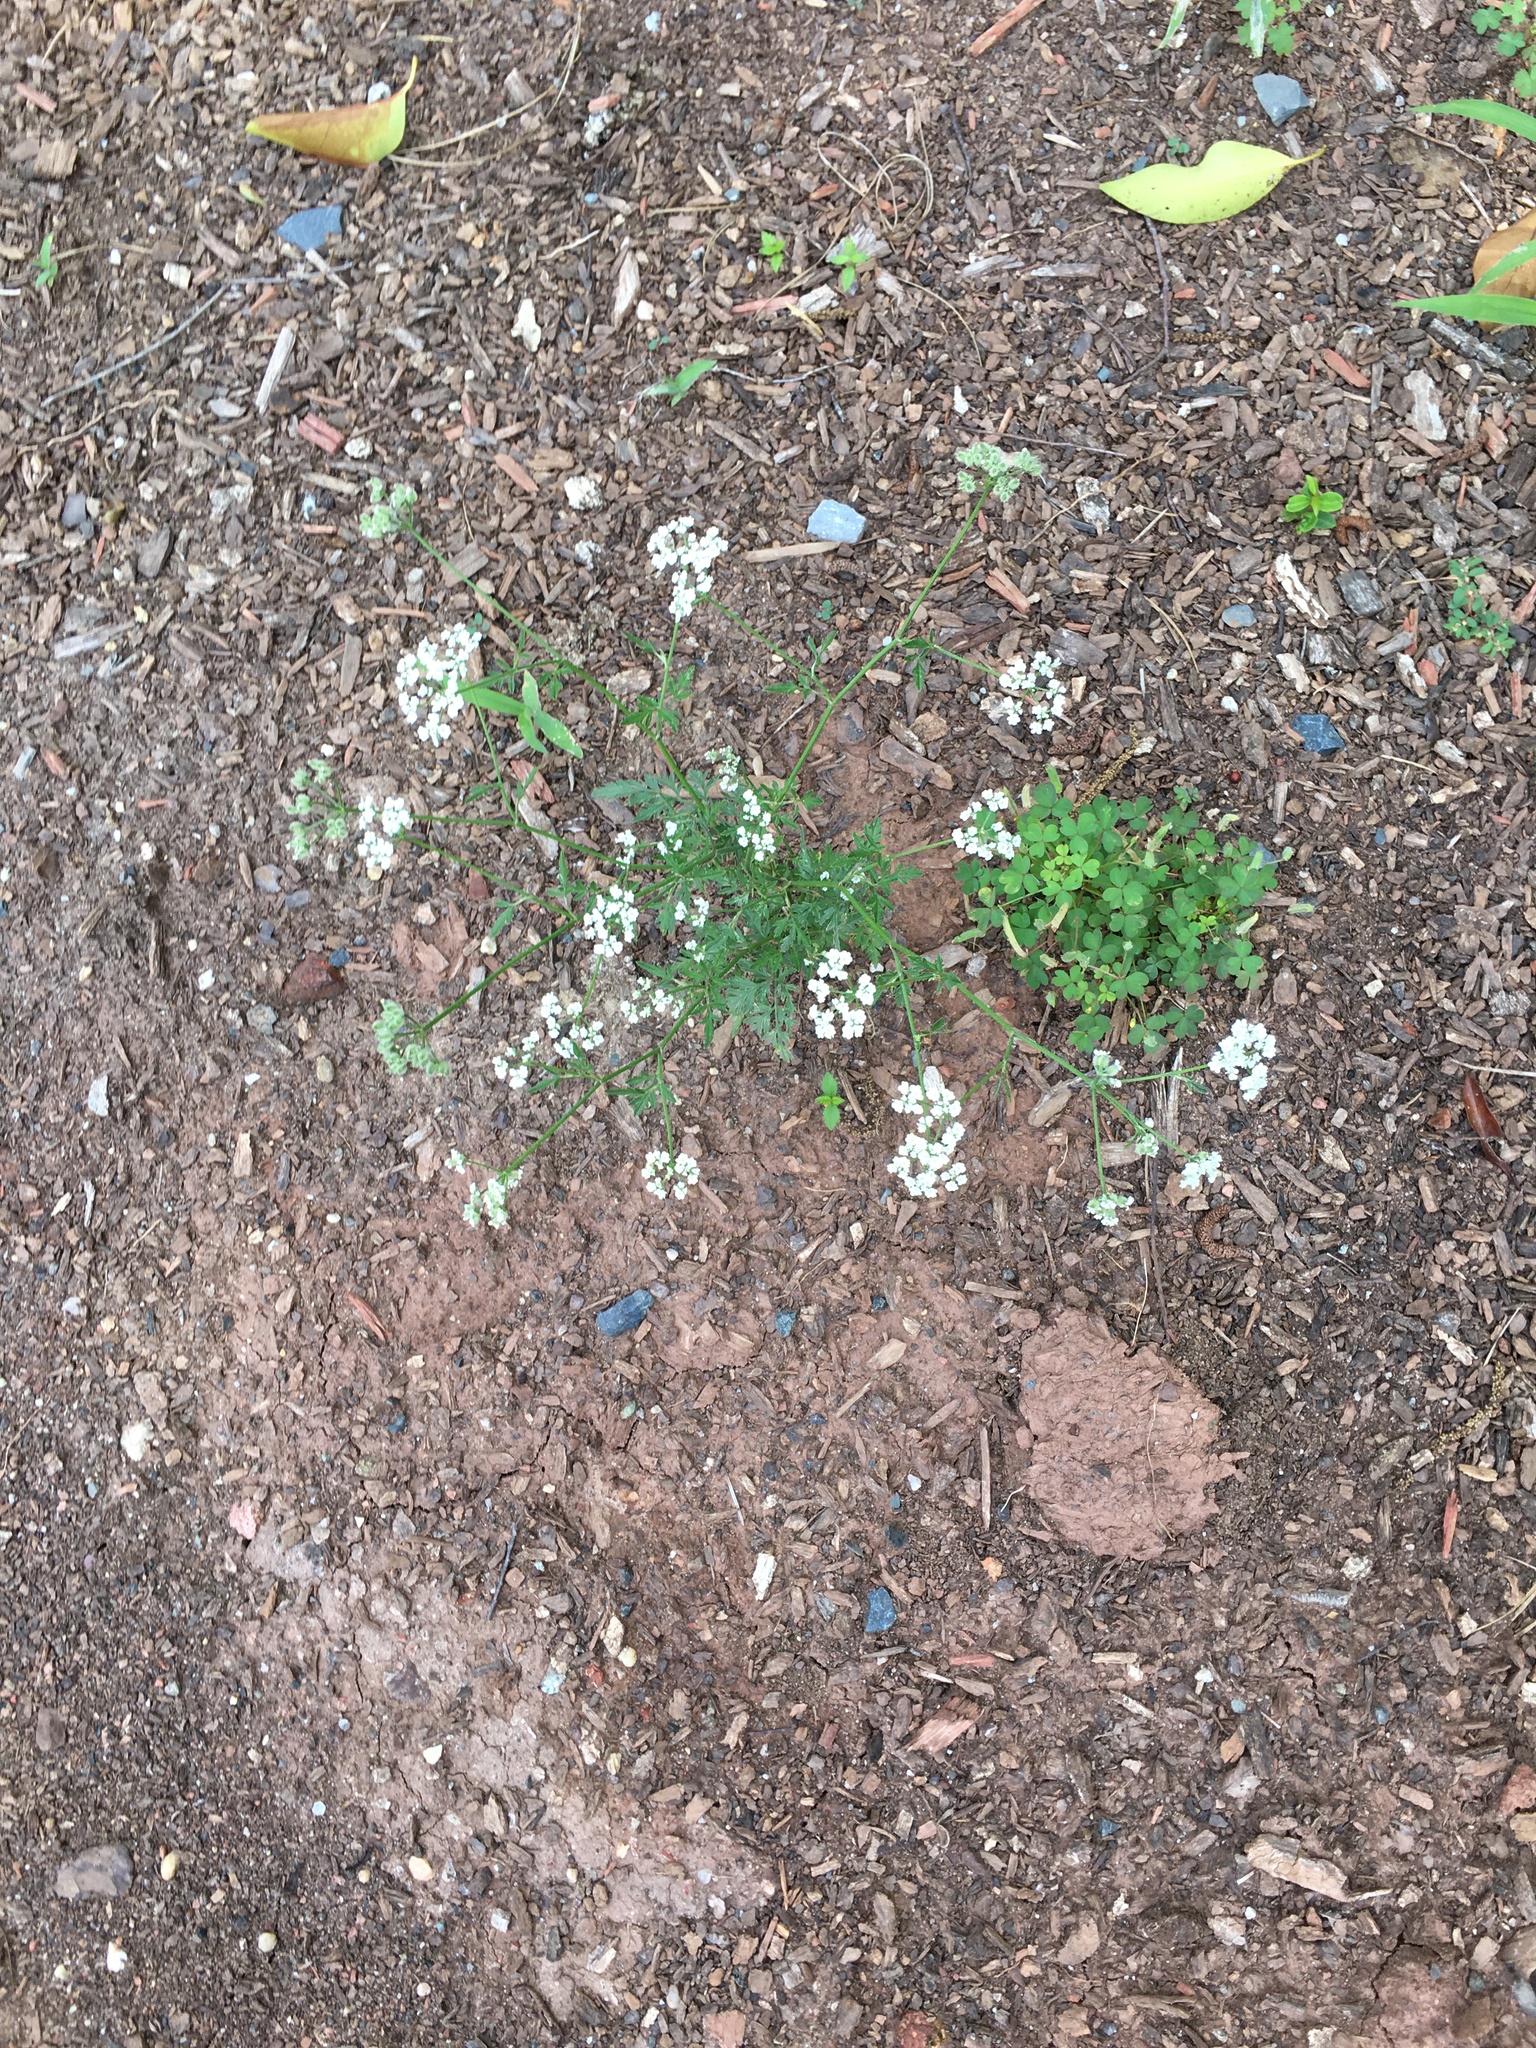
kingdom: Plantae
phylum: Tracheophyta
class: Magnoliopsida
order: Apiales
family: Apiaceae
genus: Torilis
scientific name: Torilis arvensis
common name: Spreading hedge-parsley
